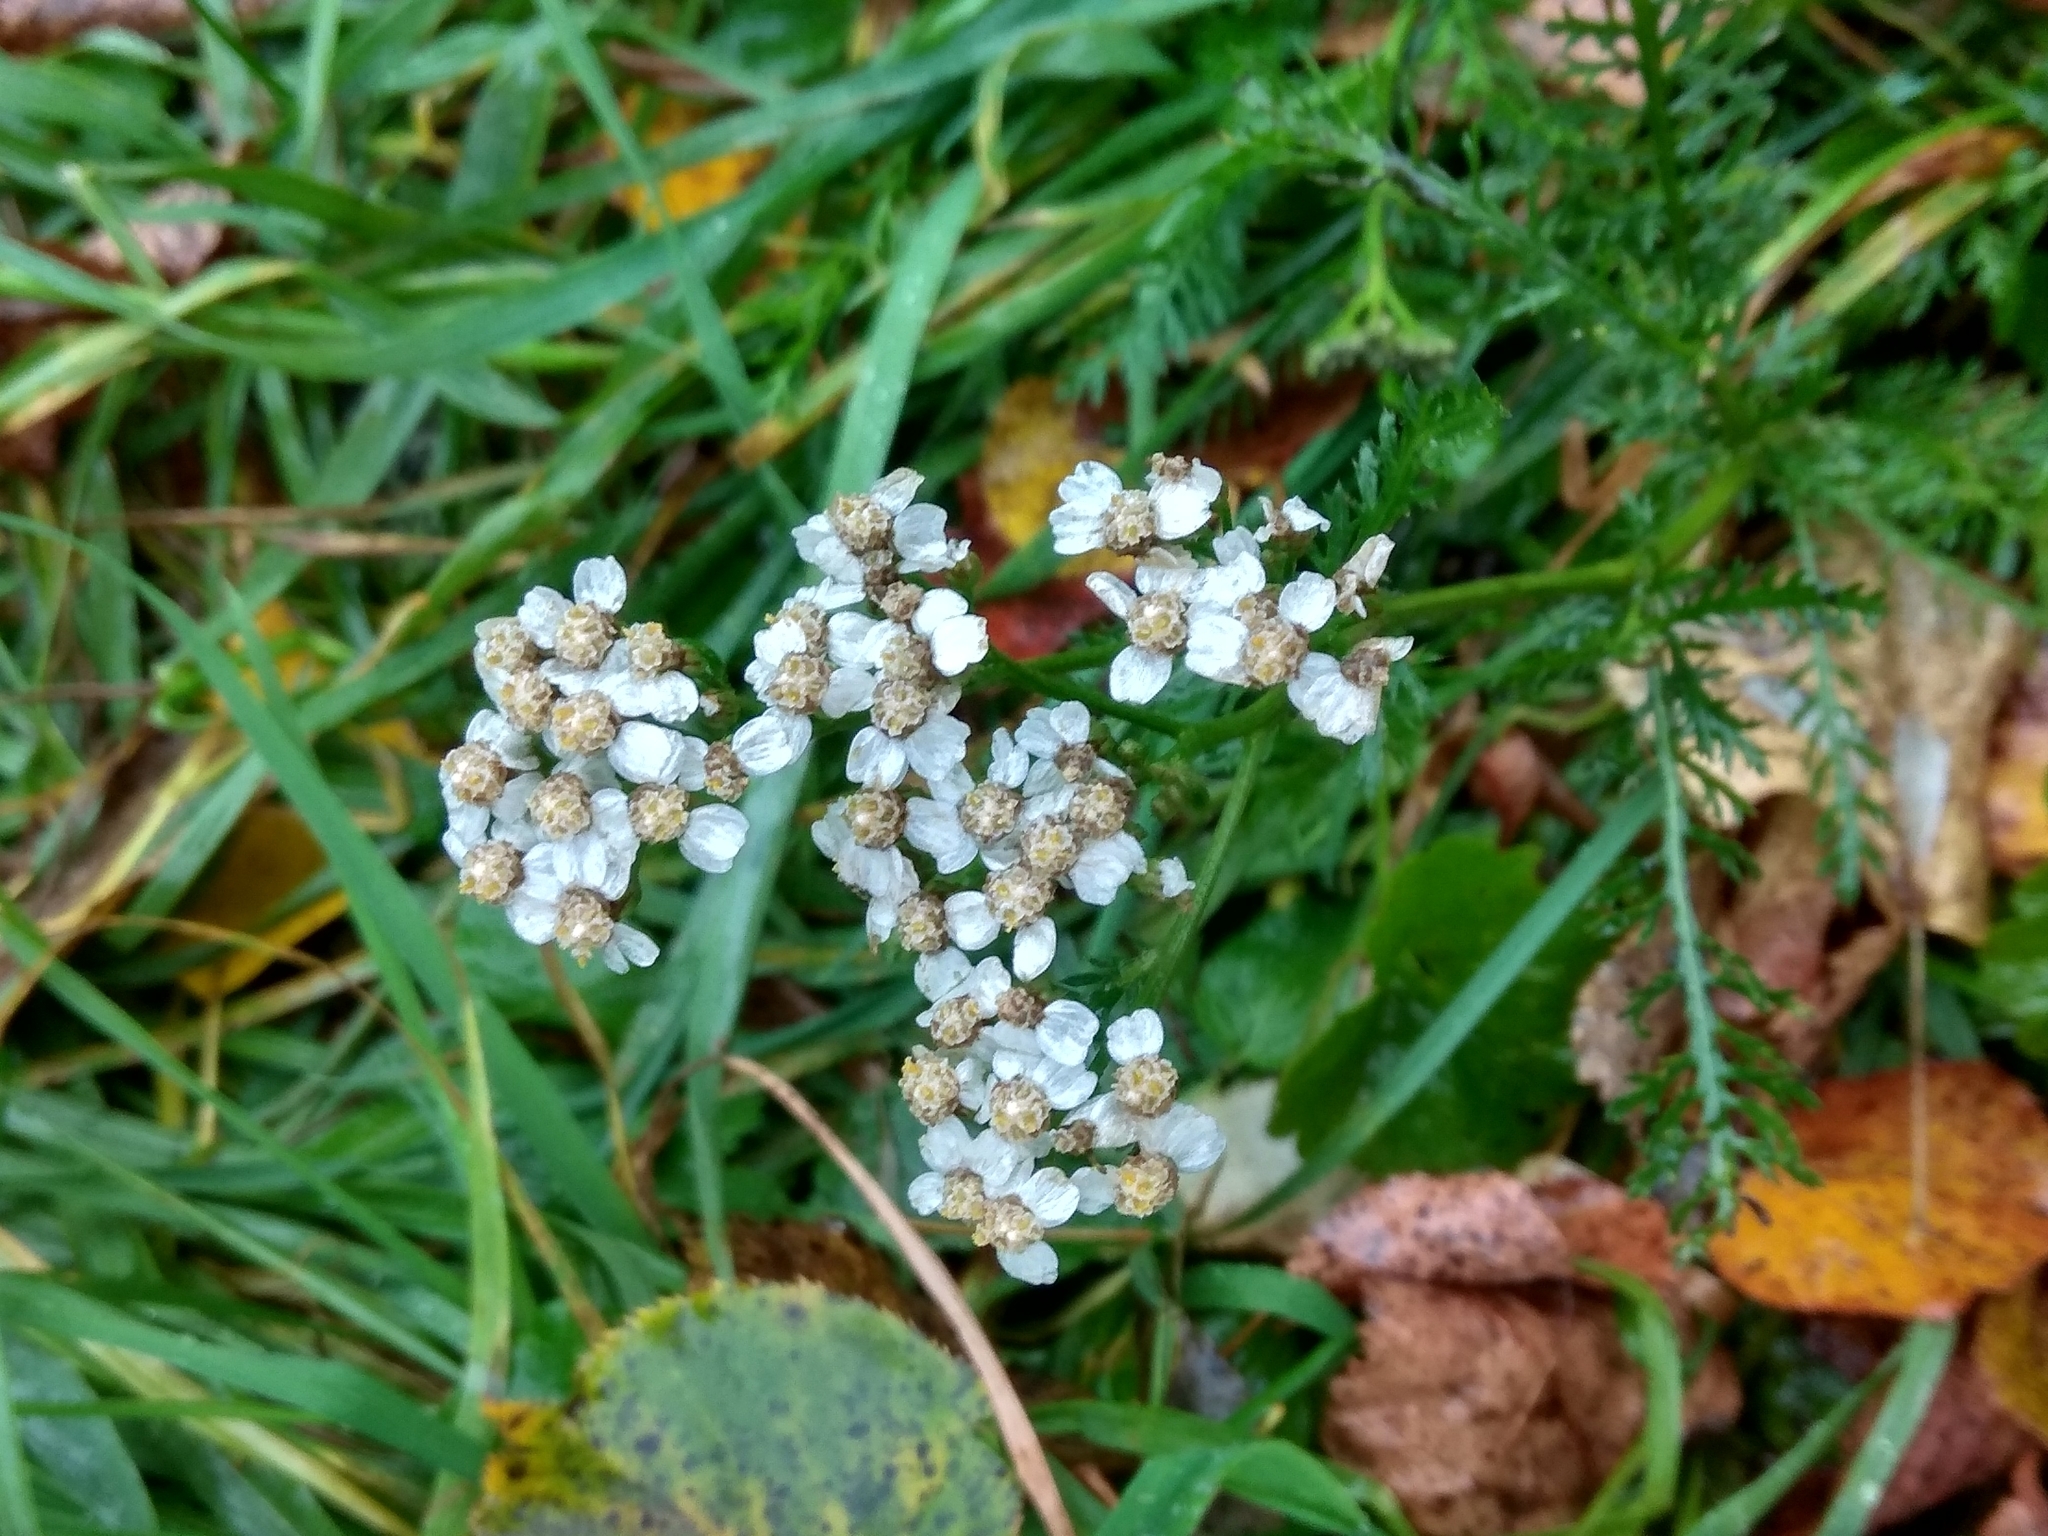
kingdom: Plantae
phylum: Tracheophyta
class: Magnoliopsida
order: Asterales
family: Asteraceae
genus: Achillea
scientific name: Achillea millefolium
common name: Yarrow
